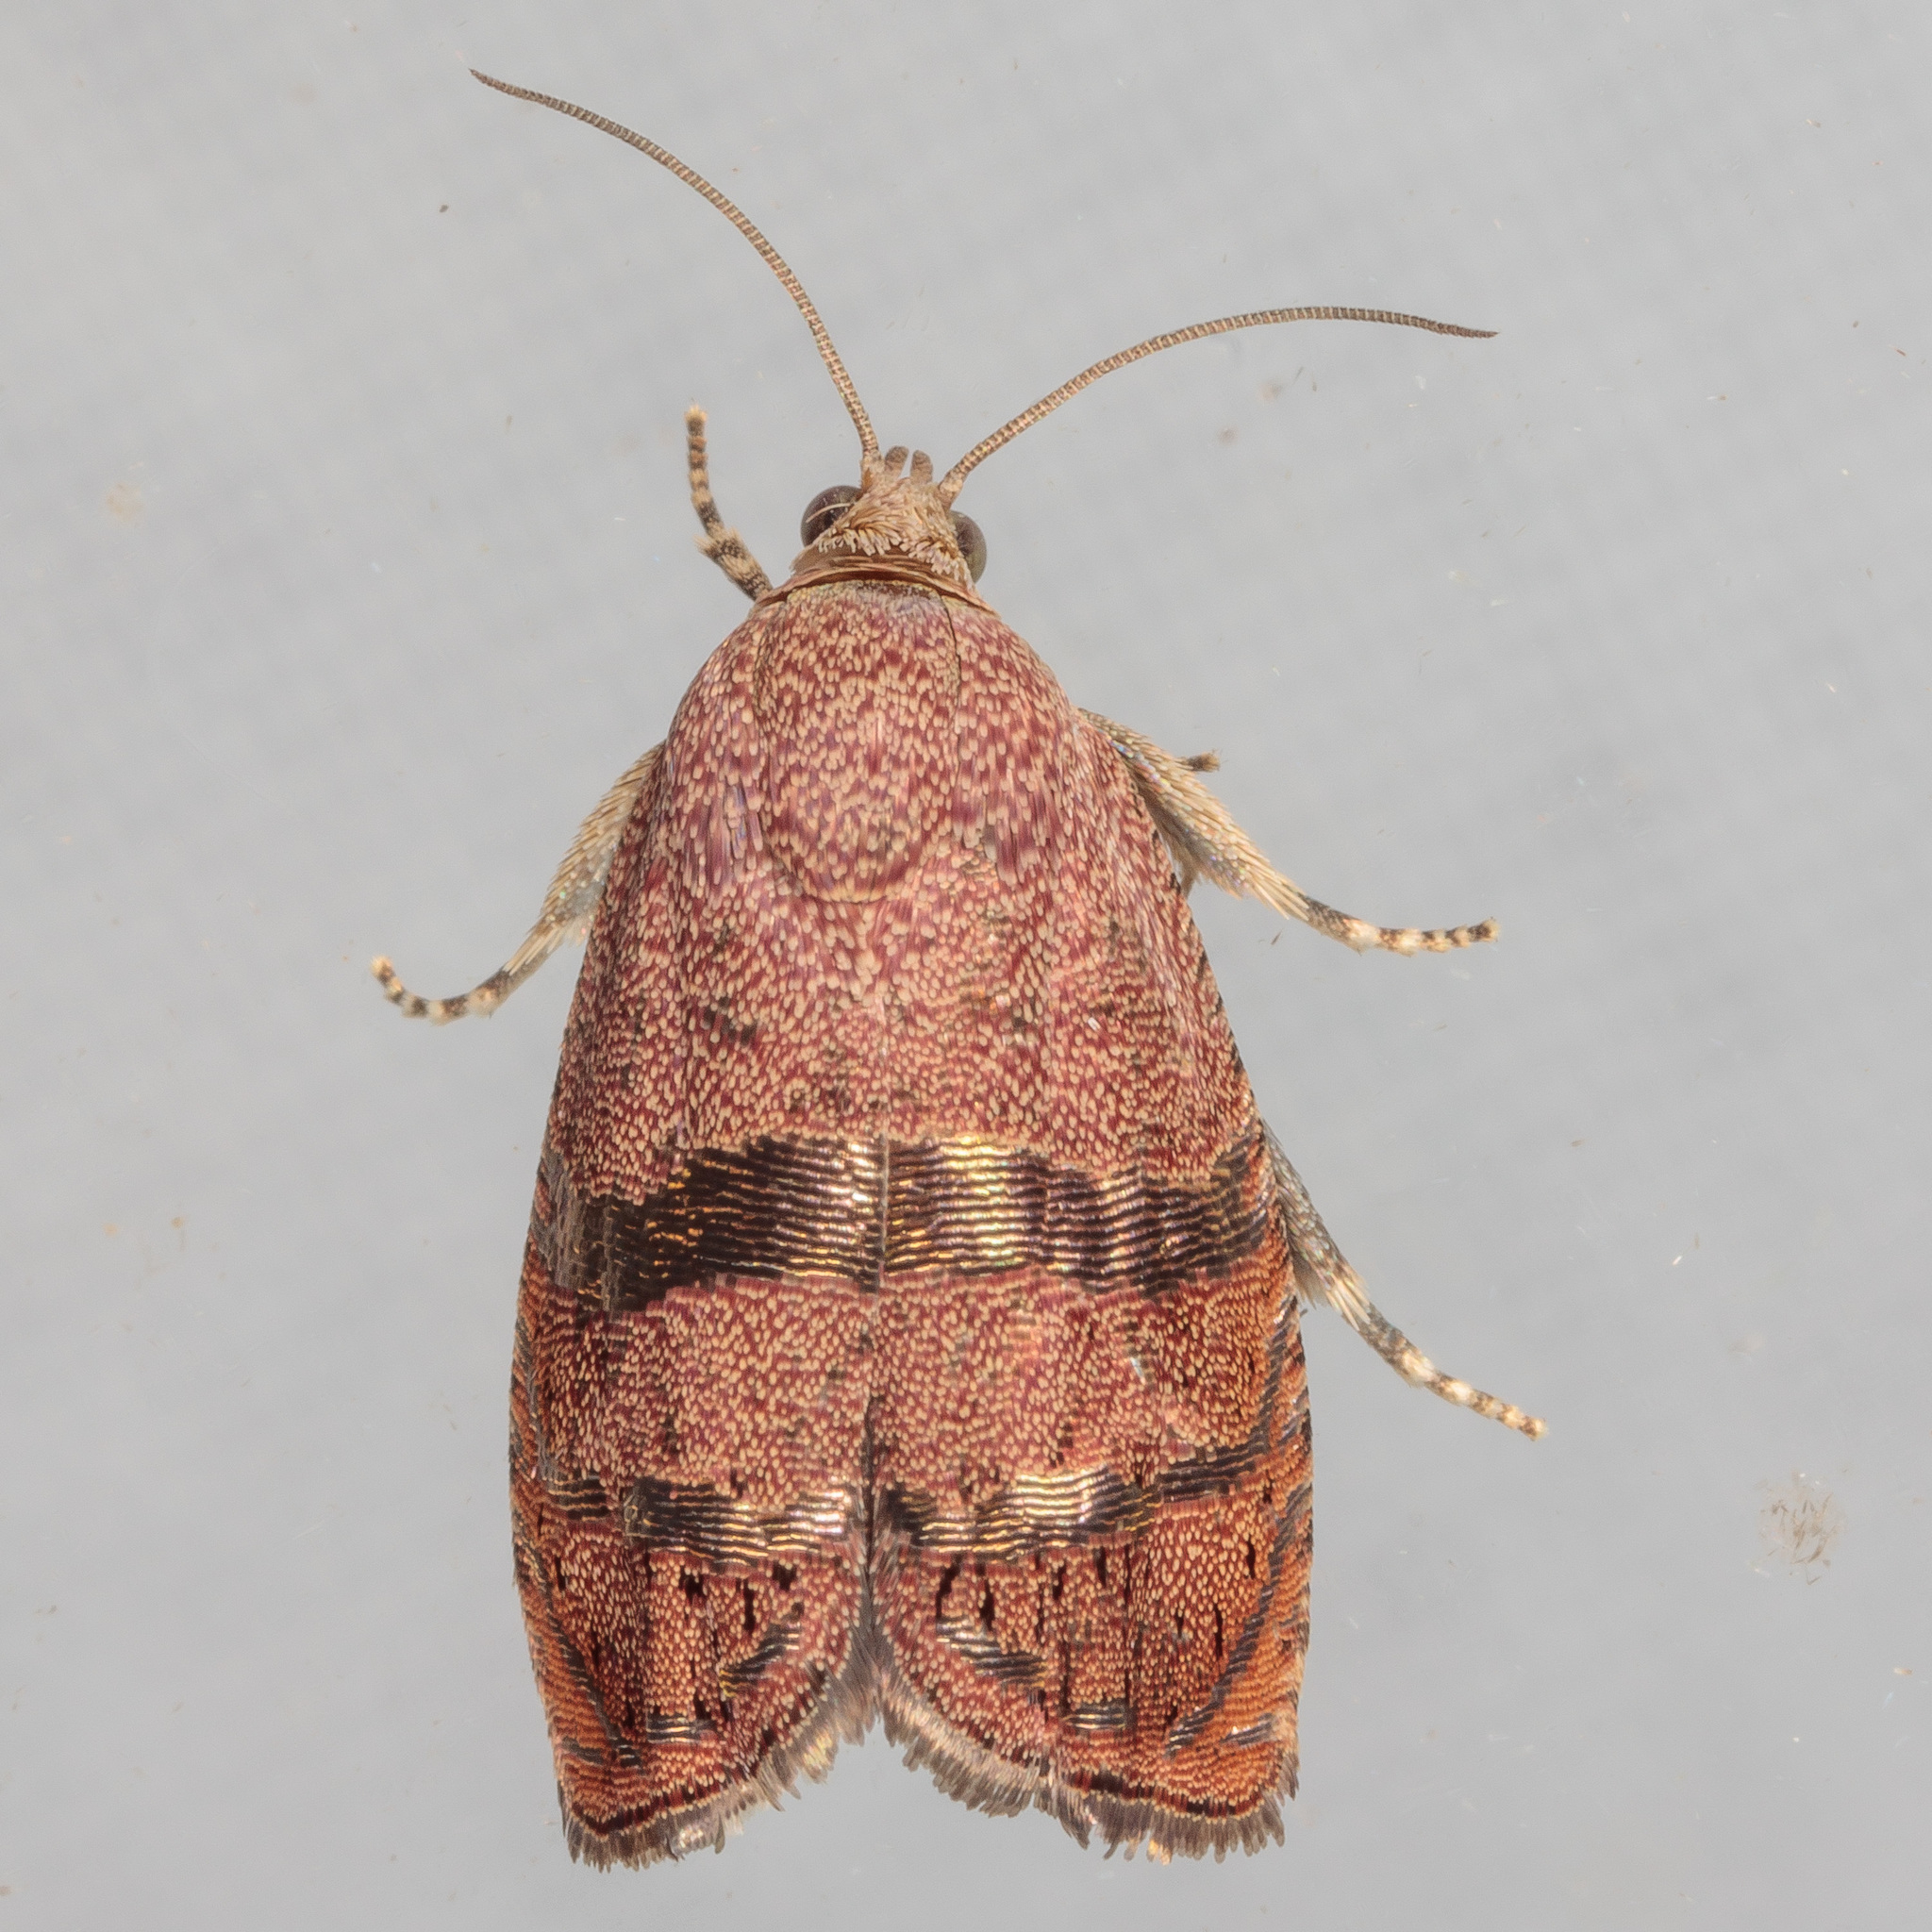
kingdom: Animalia
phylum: Arthropoda
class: Insecta
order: Lepidoptera
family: Tortricidae
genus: Cydia
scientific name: Cydia latiferreana
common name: Filbertworm moth
